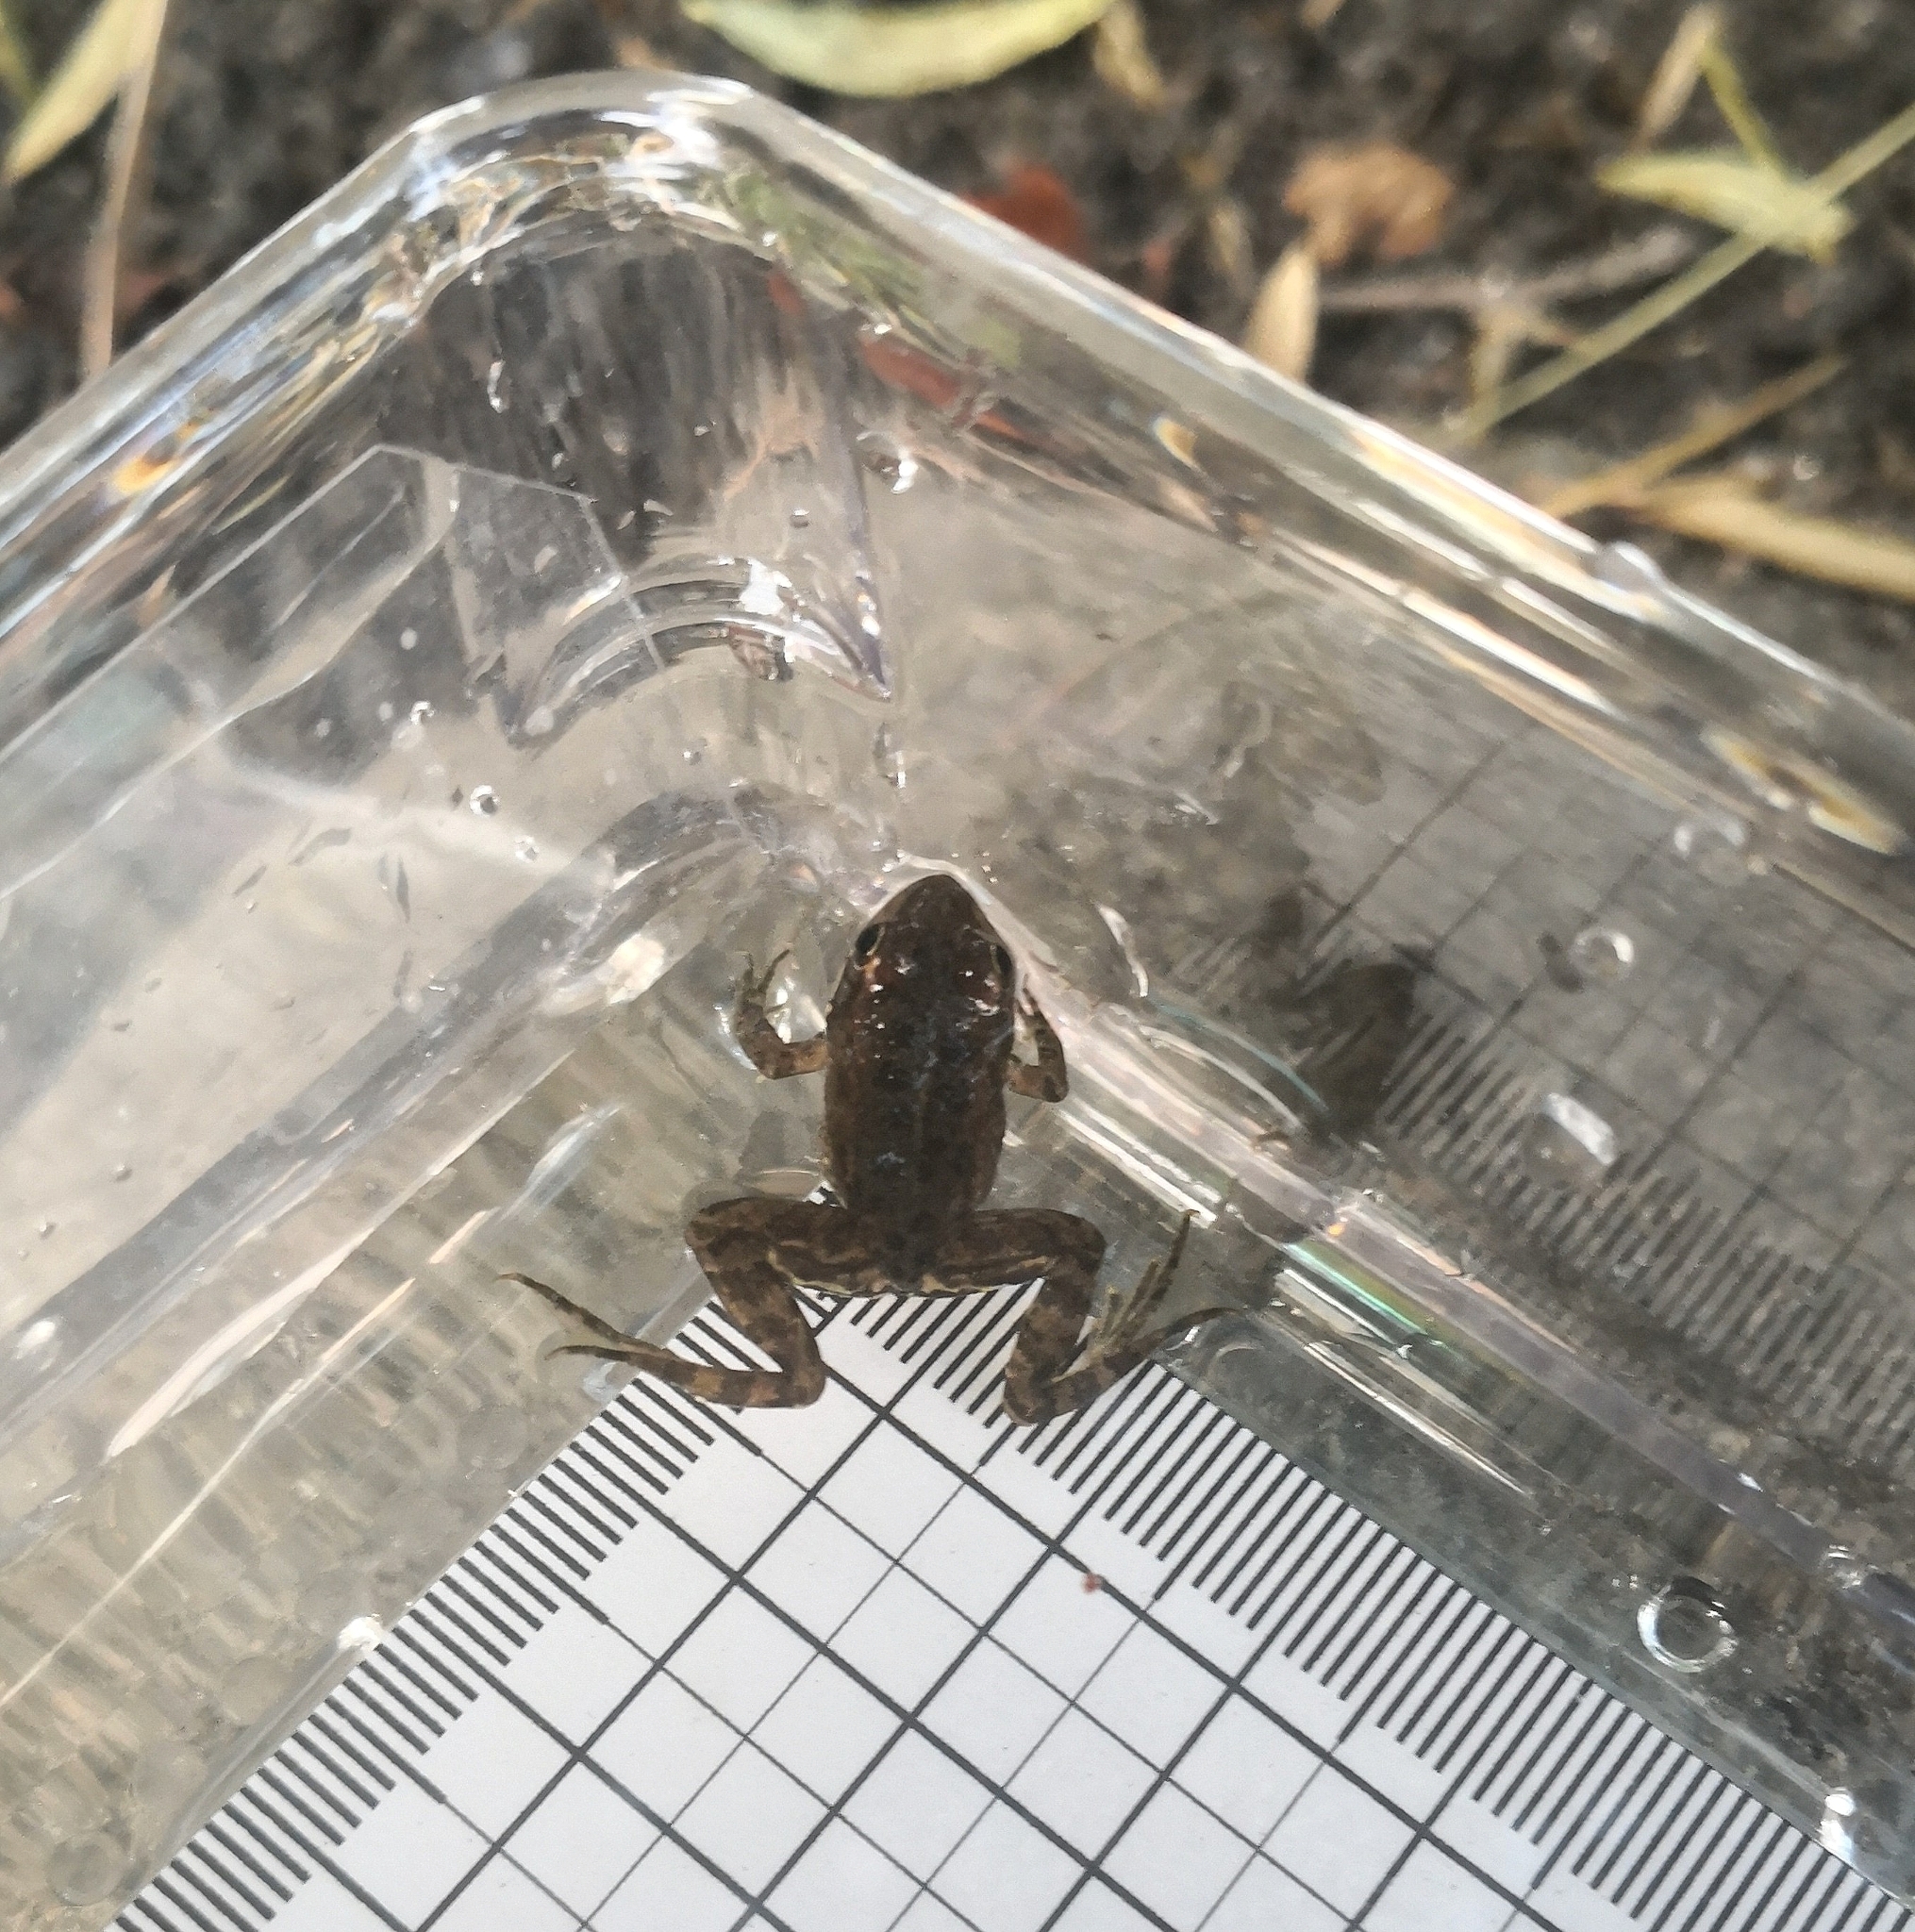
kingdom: Animalia
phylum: Chordata
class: Amphibia
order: Anura
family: Ranidae
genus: Pelophylax
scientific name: Pelophylax perezi
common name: Perez's frog
